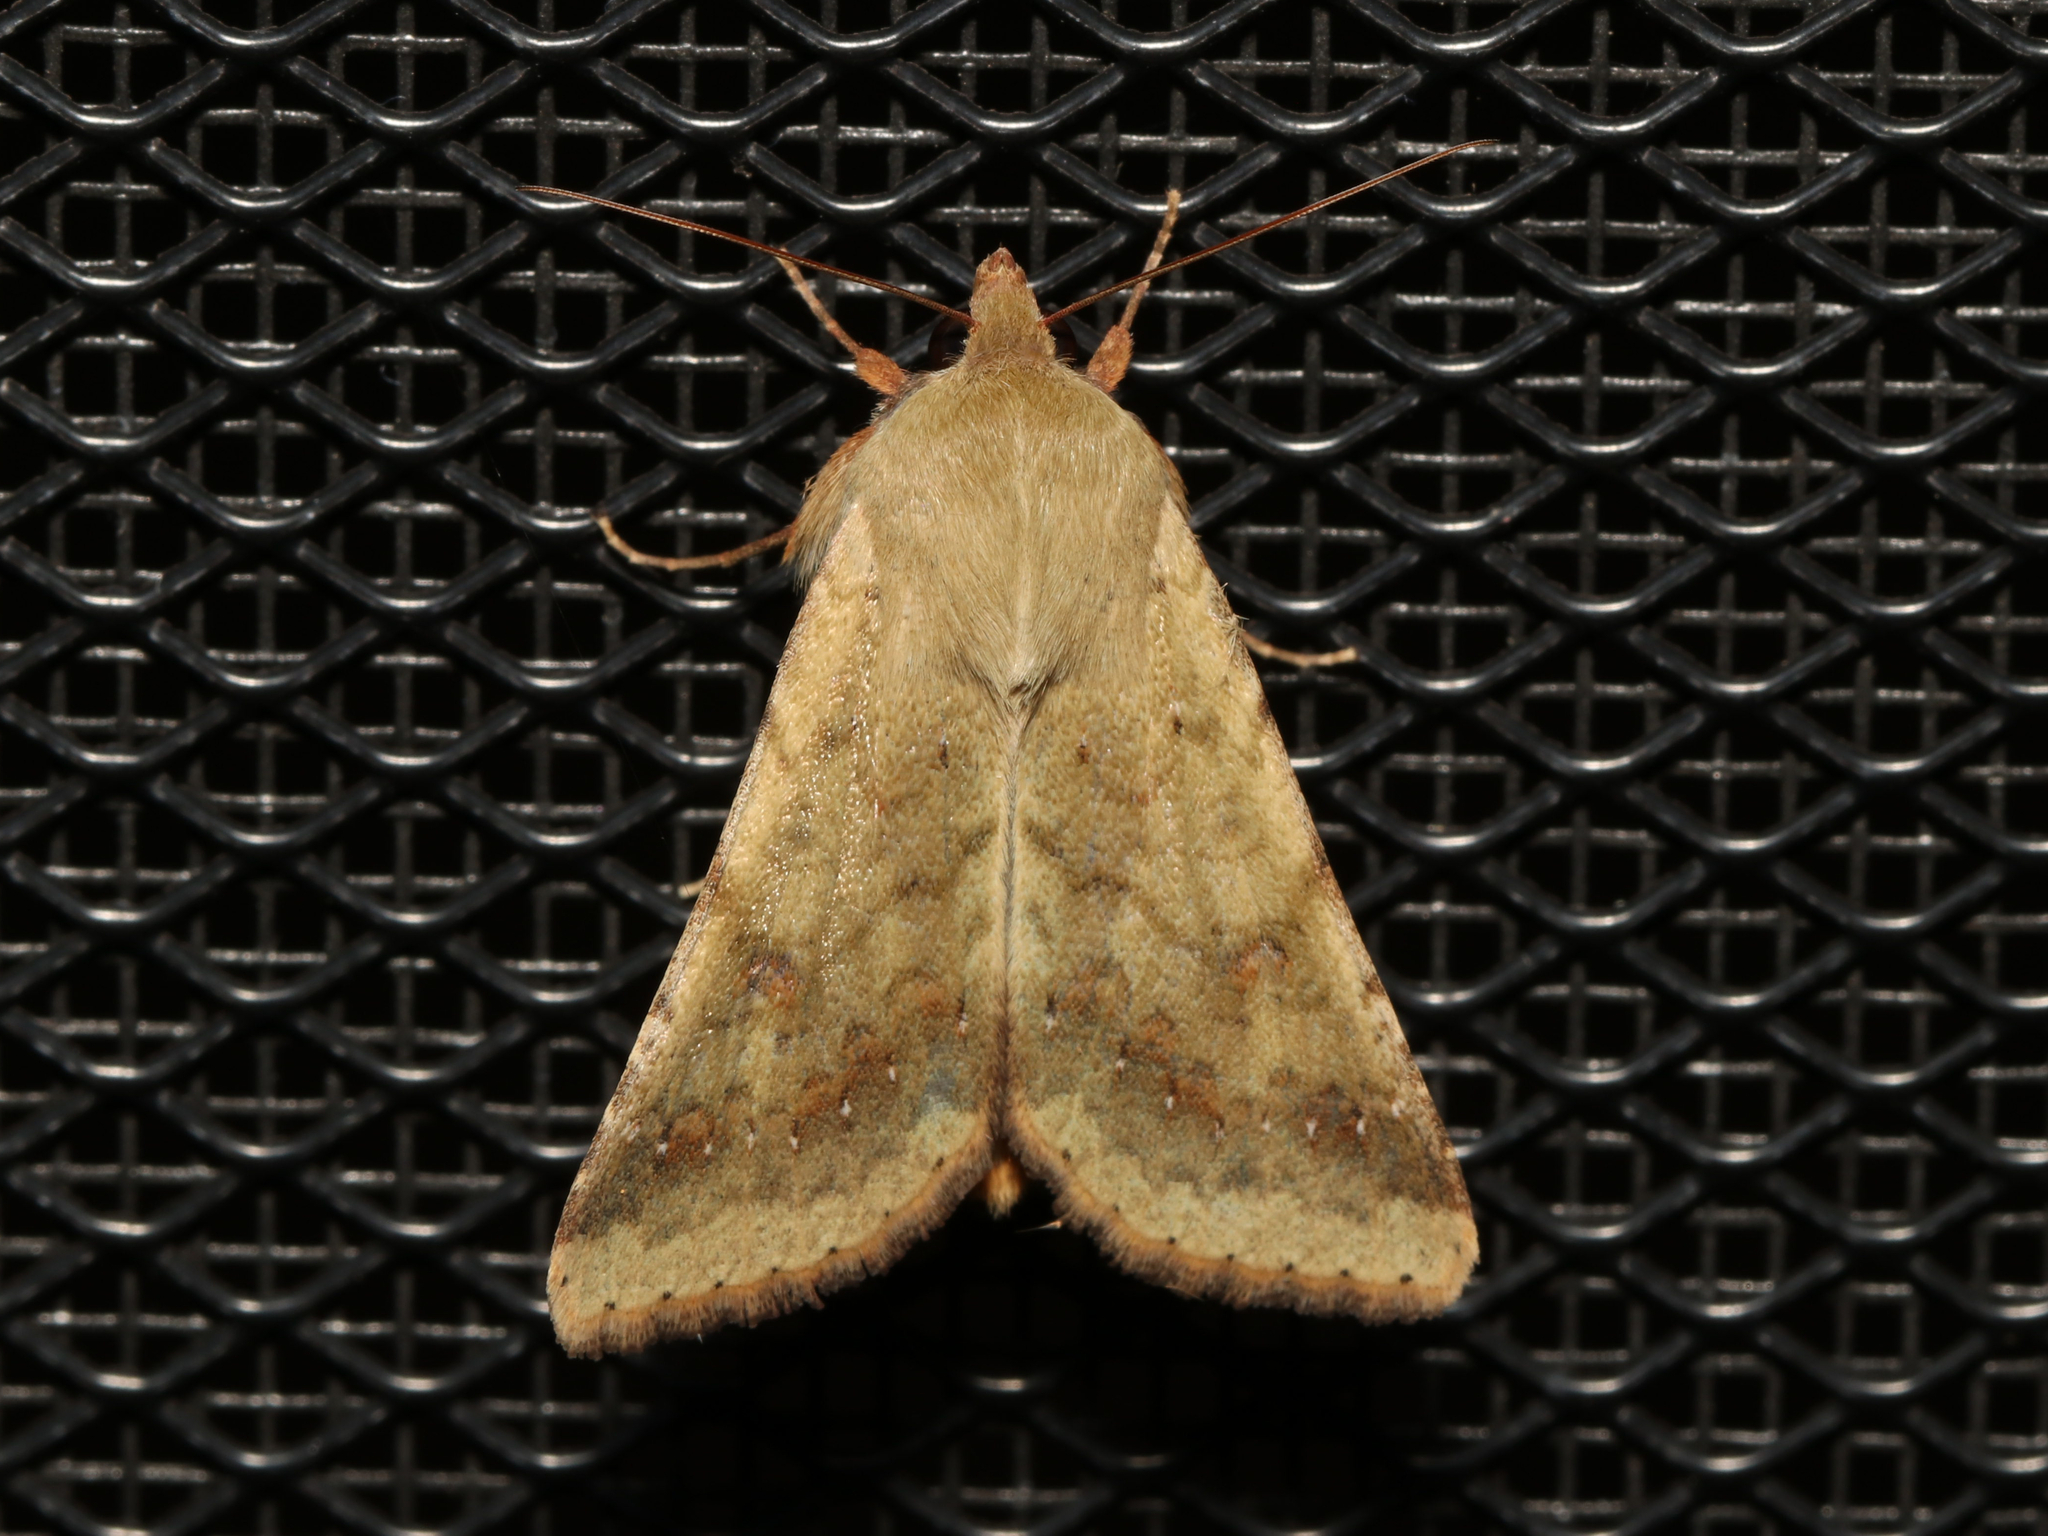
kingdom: Animalia
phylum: Arthropoda
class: Insecta
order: Lepidoptera
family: Noctuidae
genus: Helicoverpa
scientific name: Helicoverpa zea
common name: Bollworm
